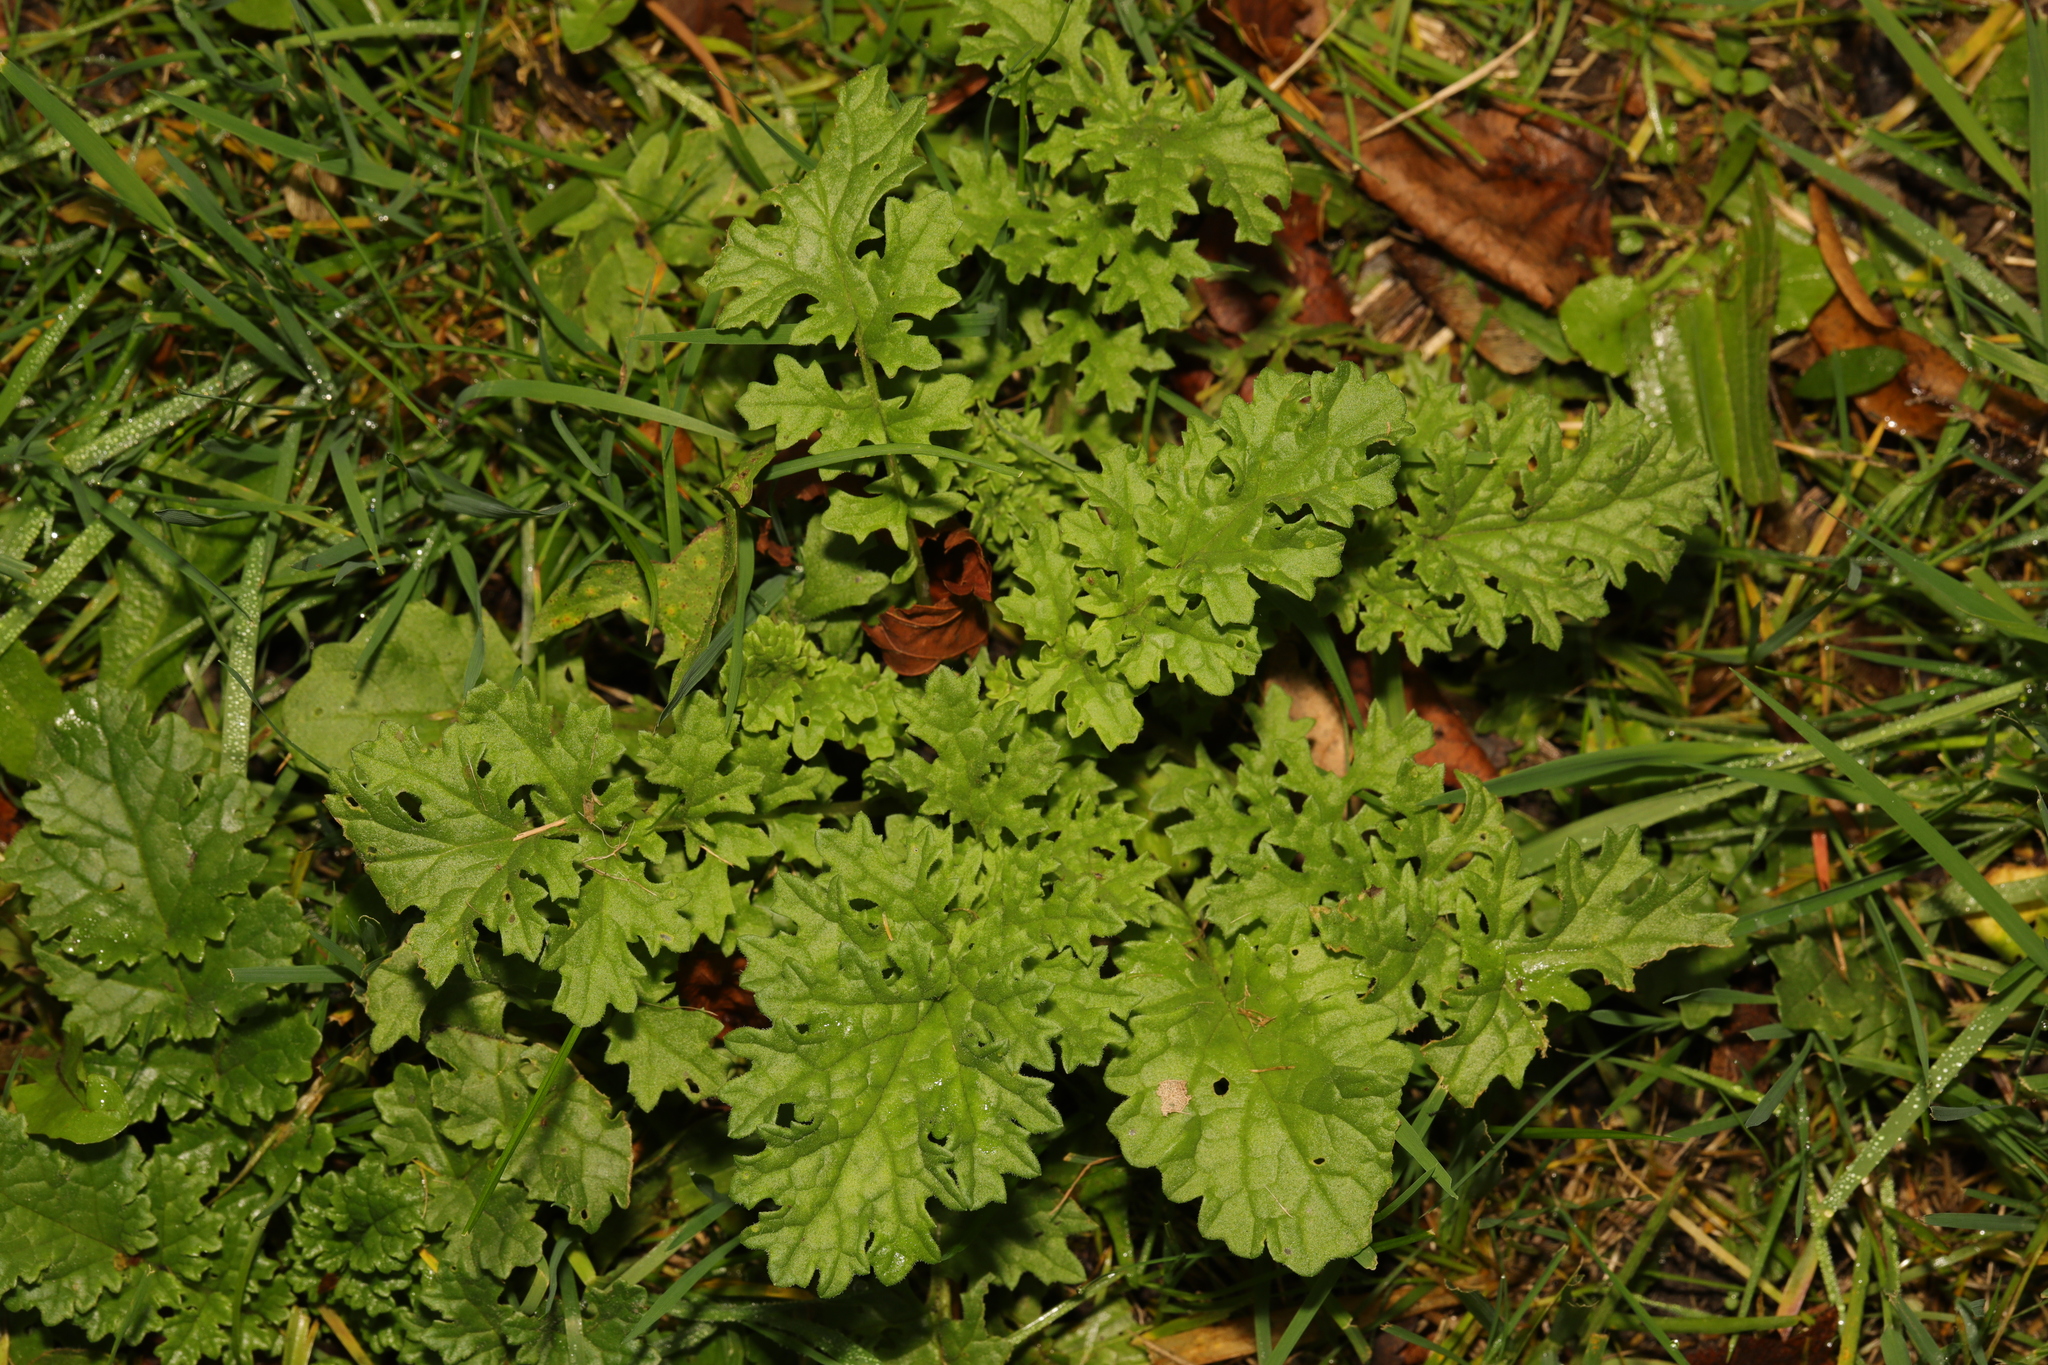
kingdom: Plantae
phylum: Tracheophyta
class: Magnoliopsida
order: Asterales
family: Asteraceae
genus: Jacobaea
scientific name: Jacobaea vulgaris
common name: Stinking willie
